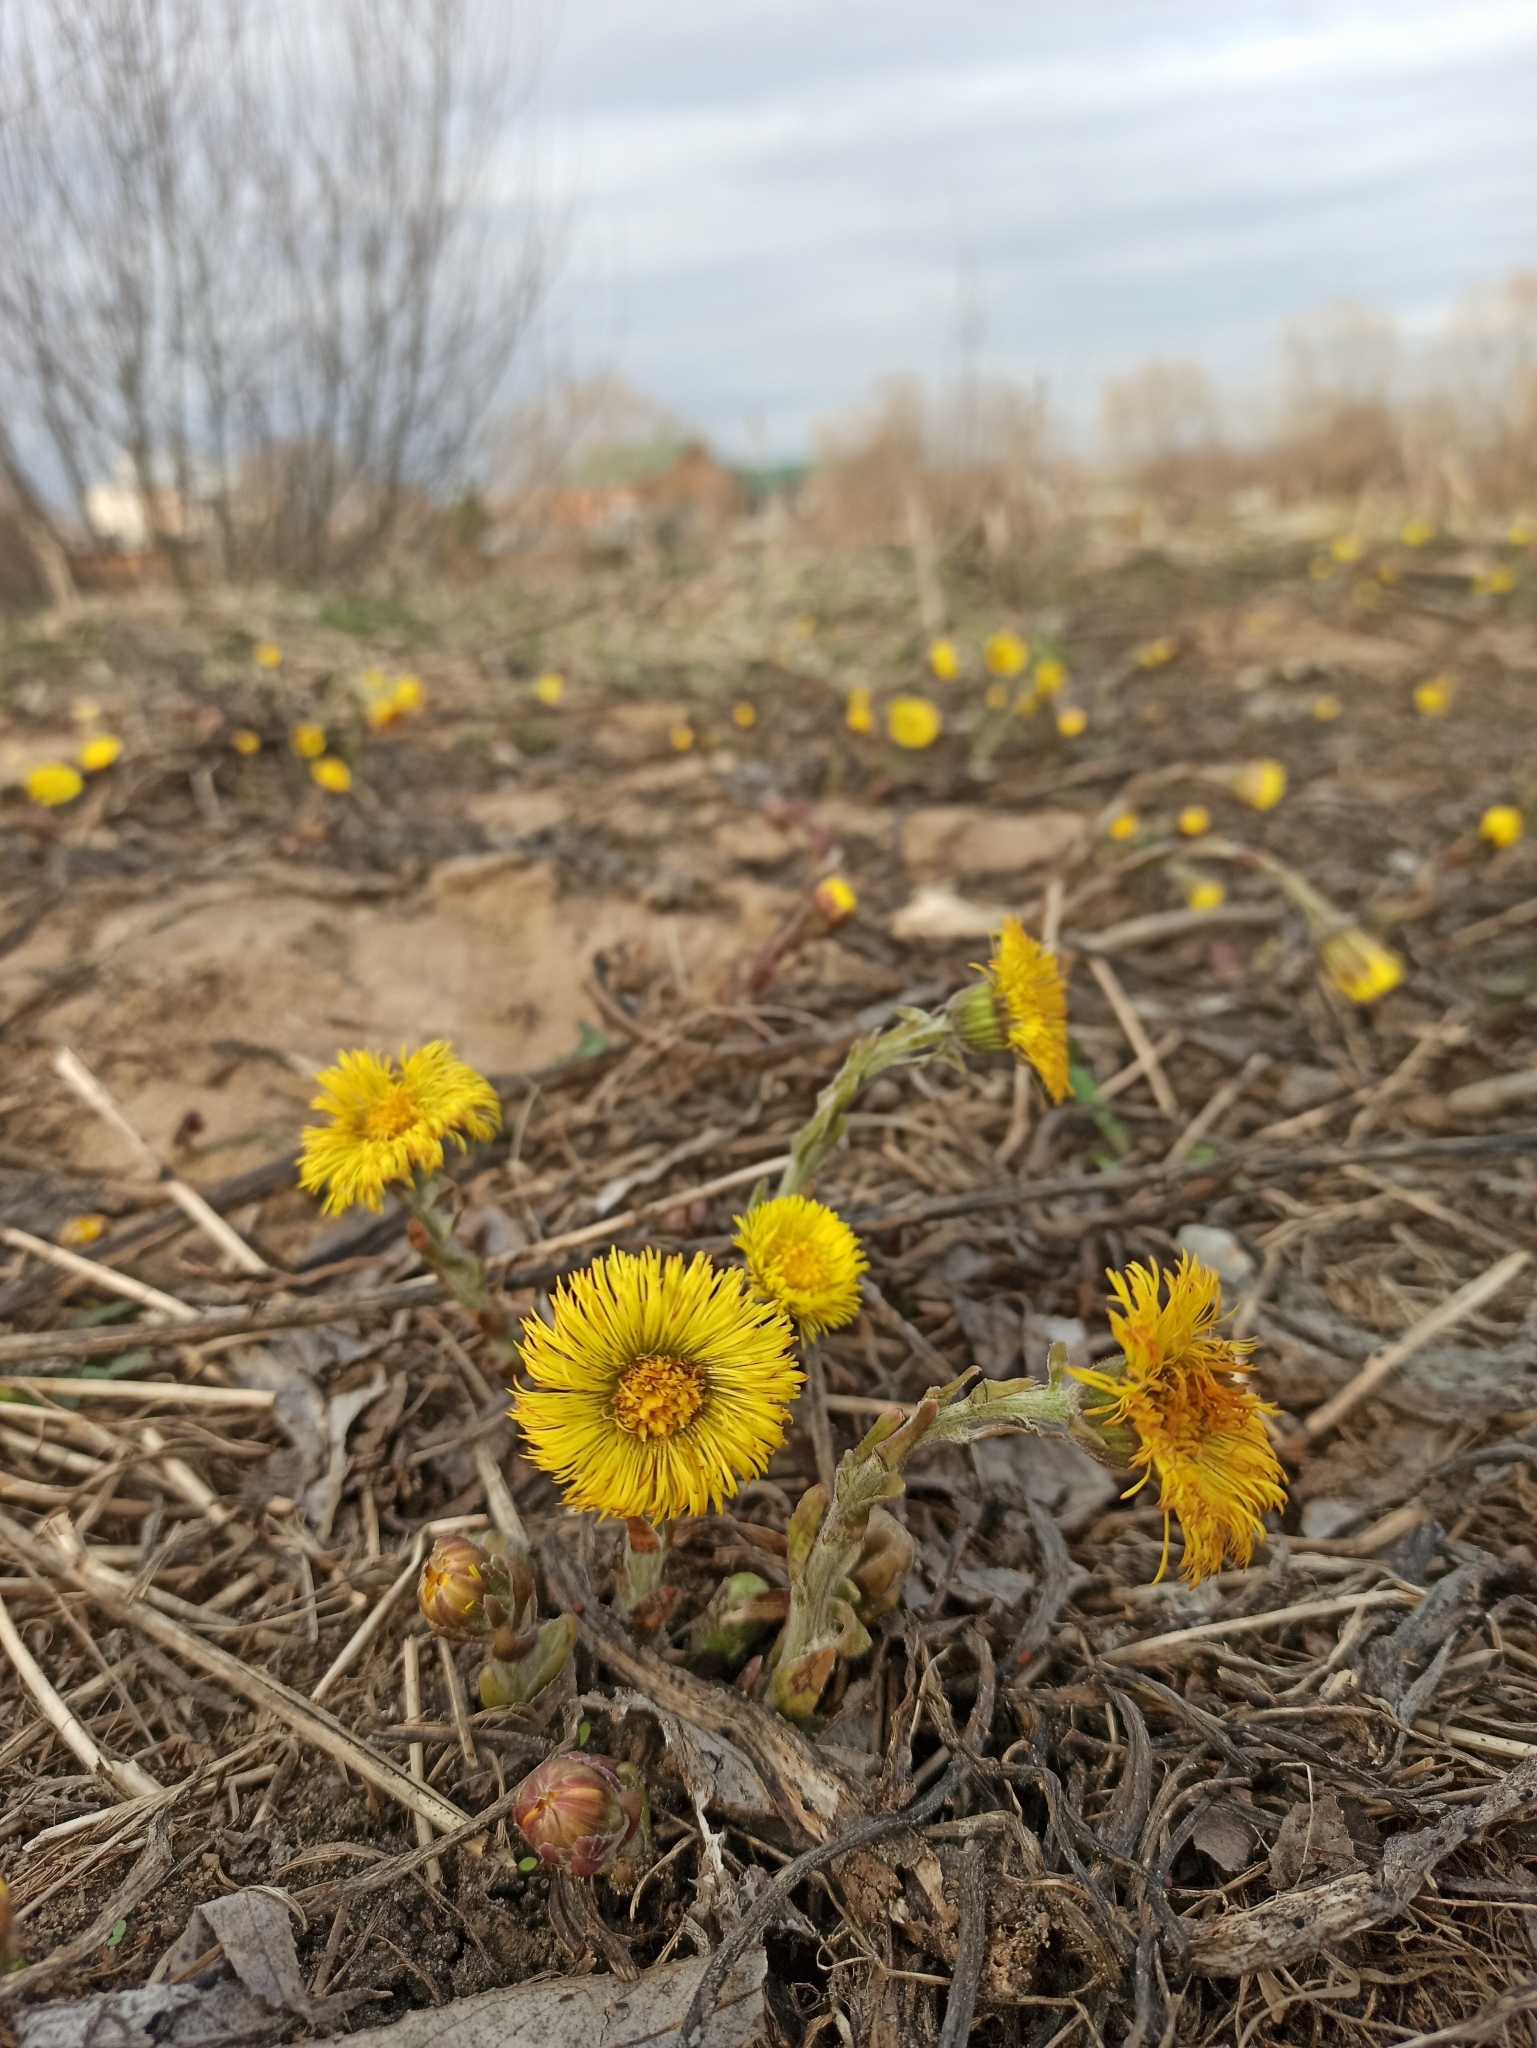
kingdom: Plantae
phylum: Tracheophyta
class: Magnoliopsida
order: Asterales
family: Asteraceae
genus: Tussilago
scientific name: Tussilago farfara
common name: Coltsfoot
